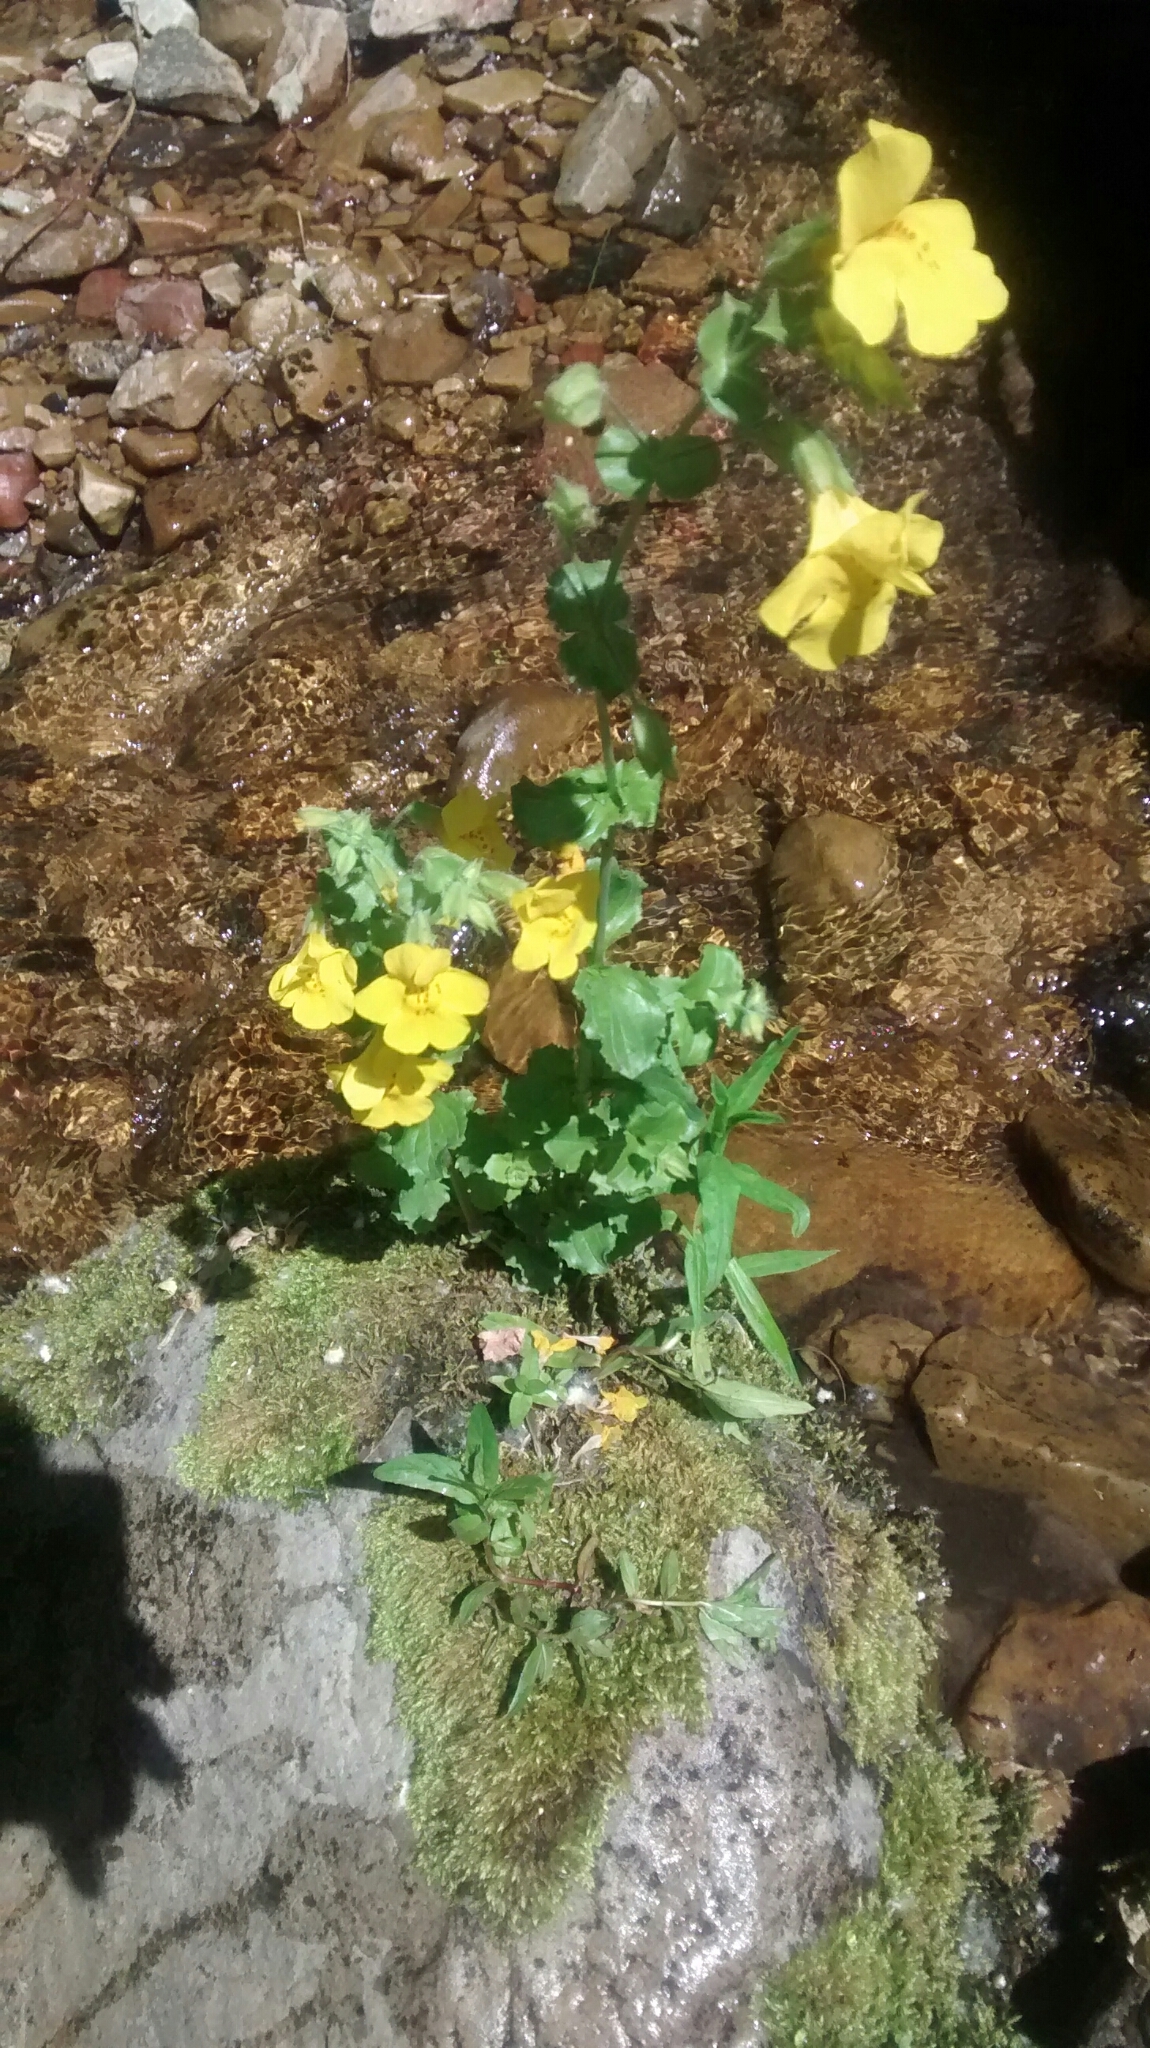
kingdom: Plantae
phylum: Tracheophyta
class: Magnoliopsida
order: Lamiales
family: Phrymaceae
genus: Erythranthe
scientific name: Erythranthe guttata
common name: Monkeyflower
